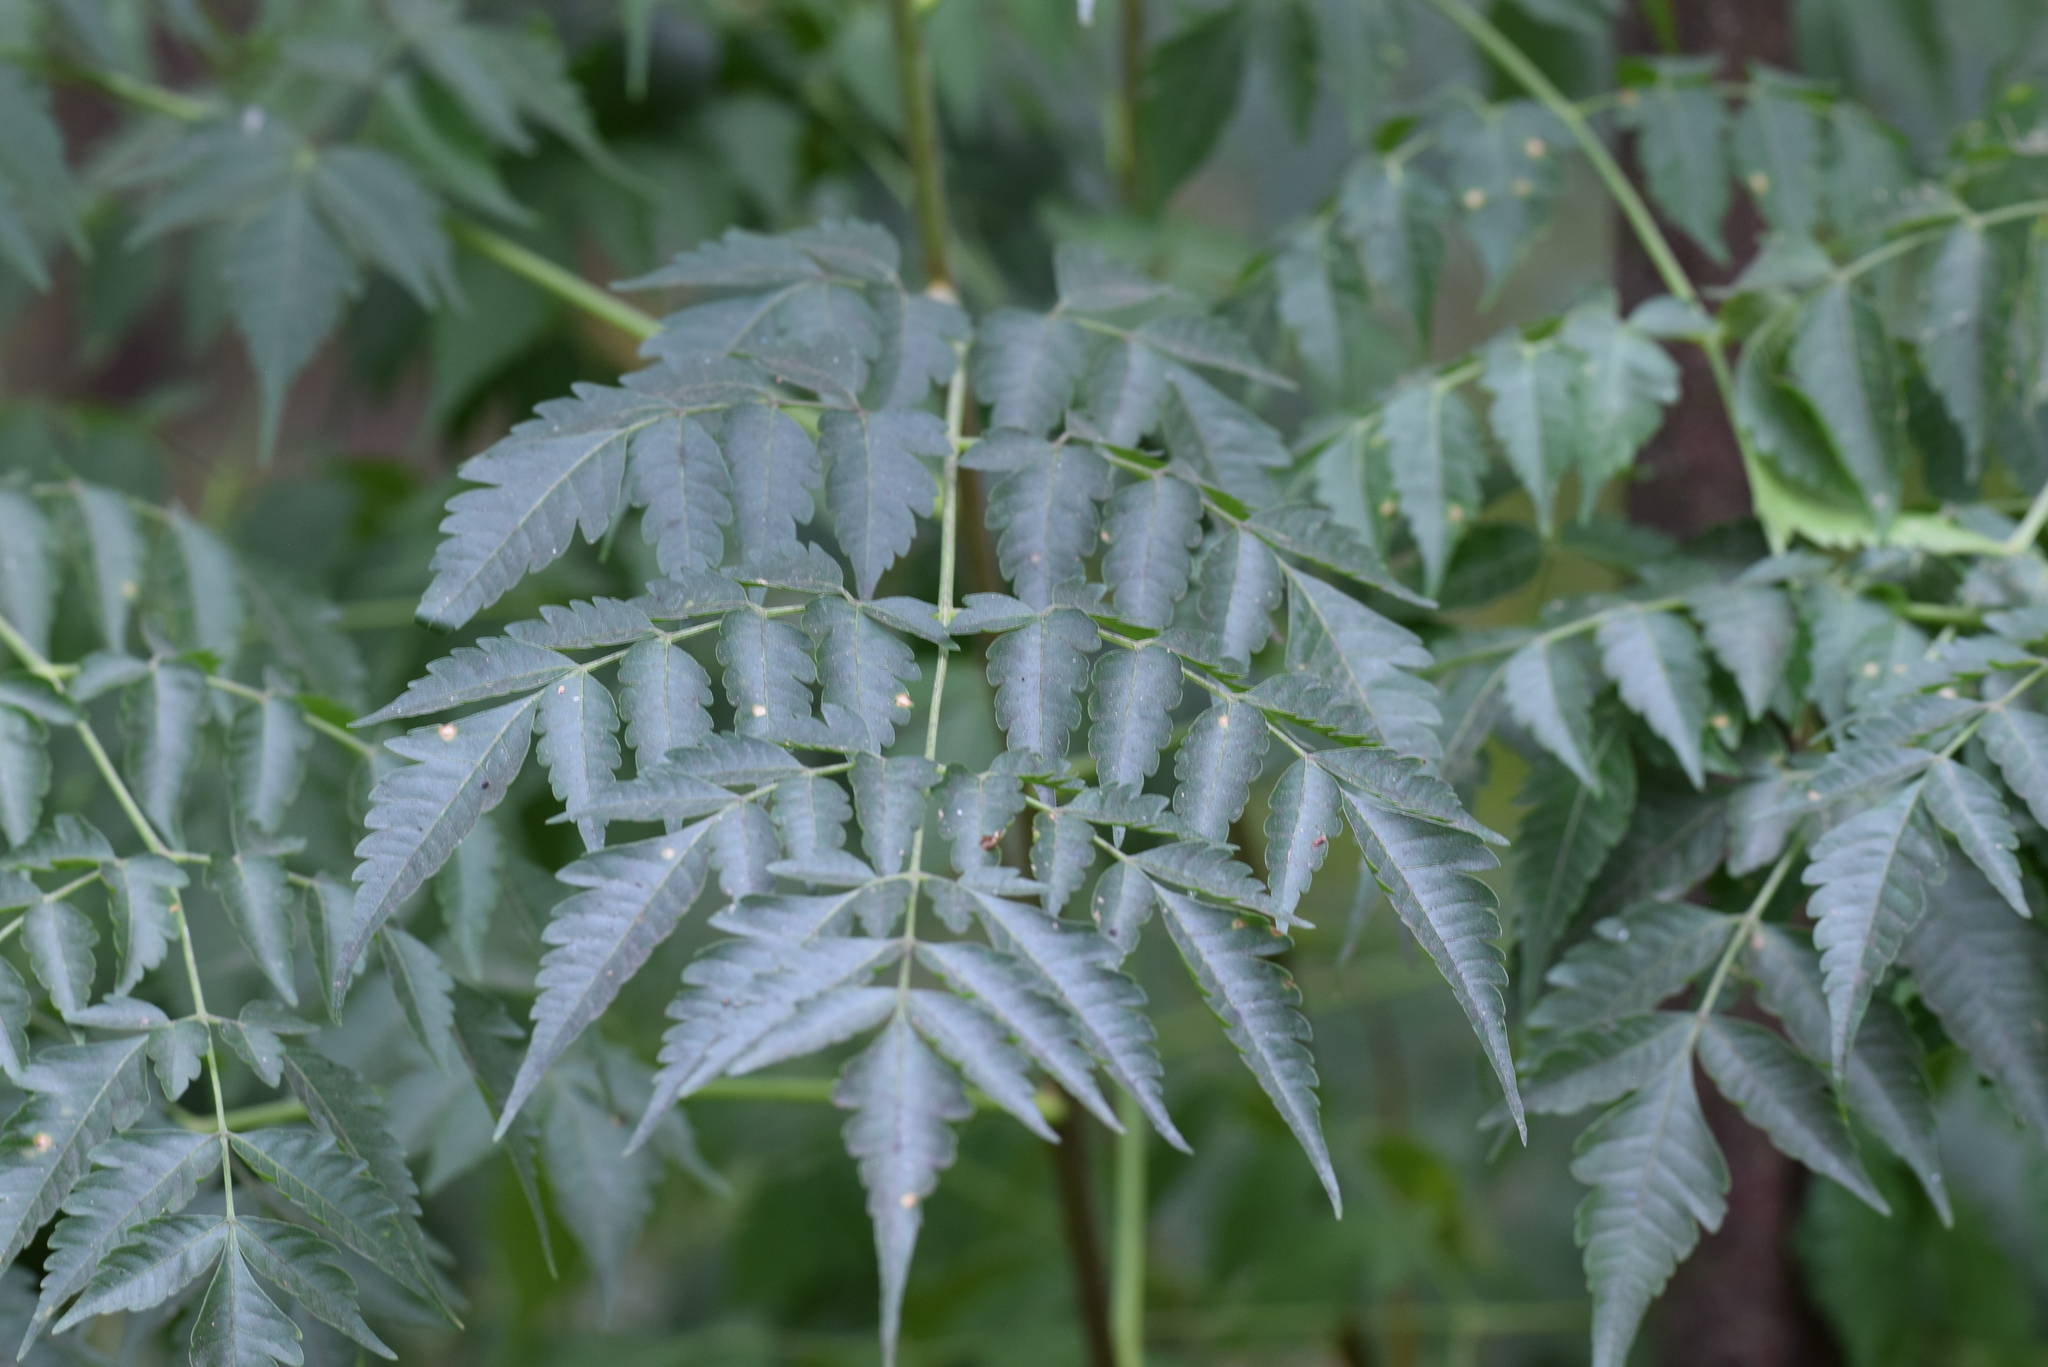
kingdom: Plantae
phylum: Tracheophyta
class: Magnoliopsida
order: Sapindales
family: Meliaceae
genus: Melia
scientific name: Melia azedarach
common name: Chinaberrytree
